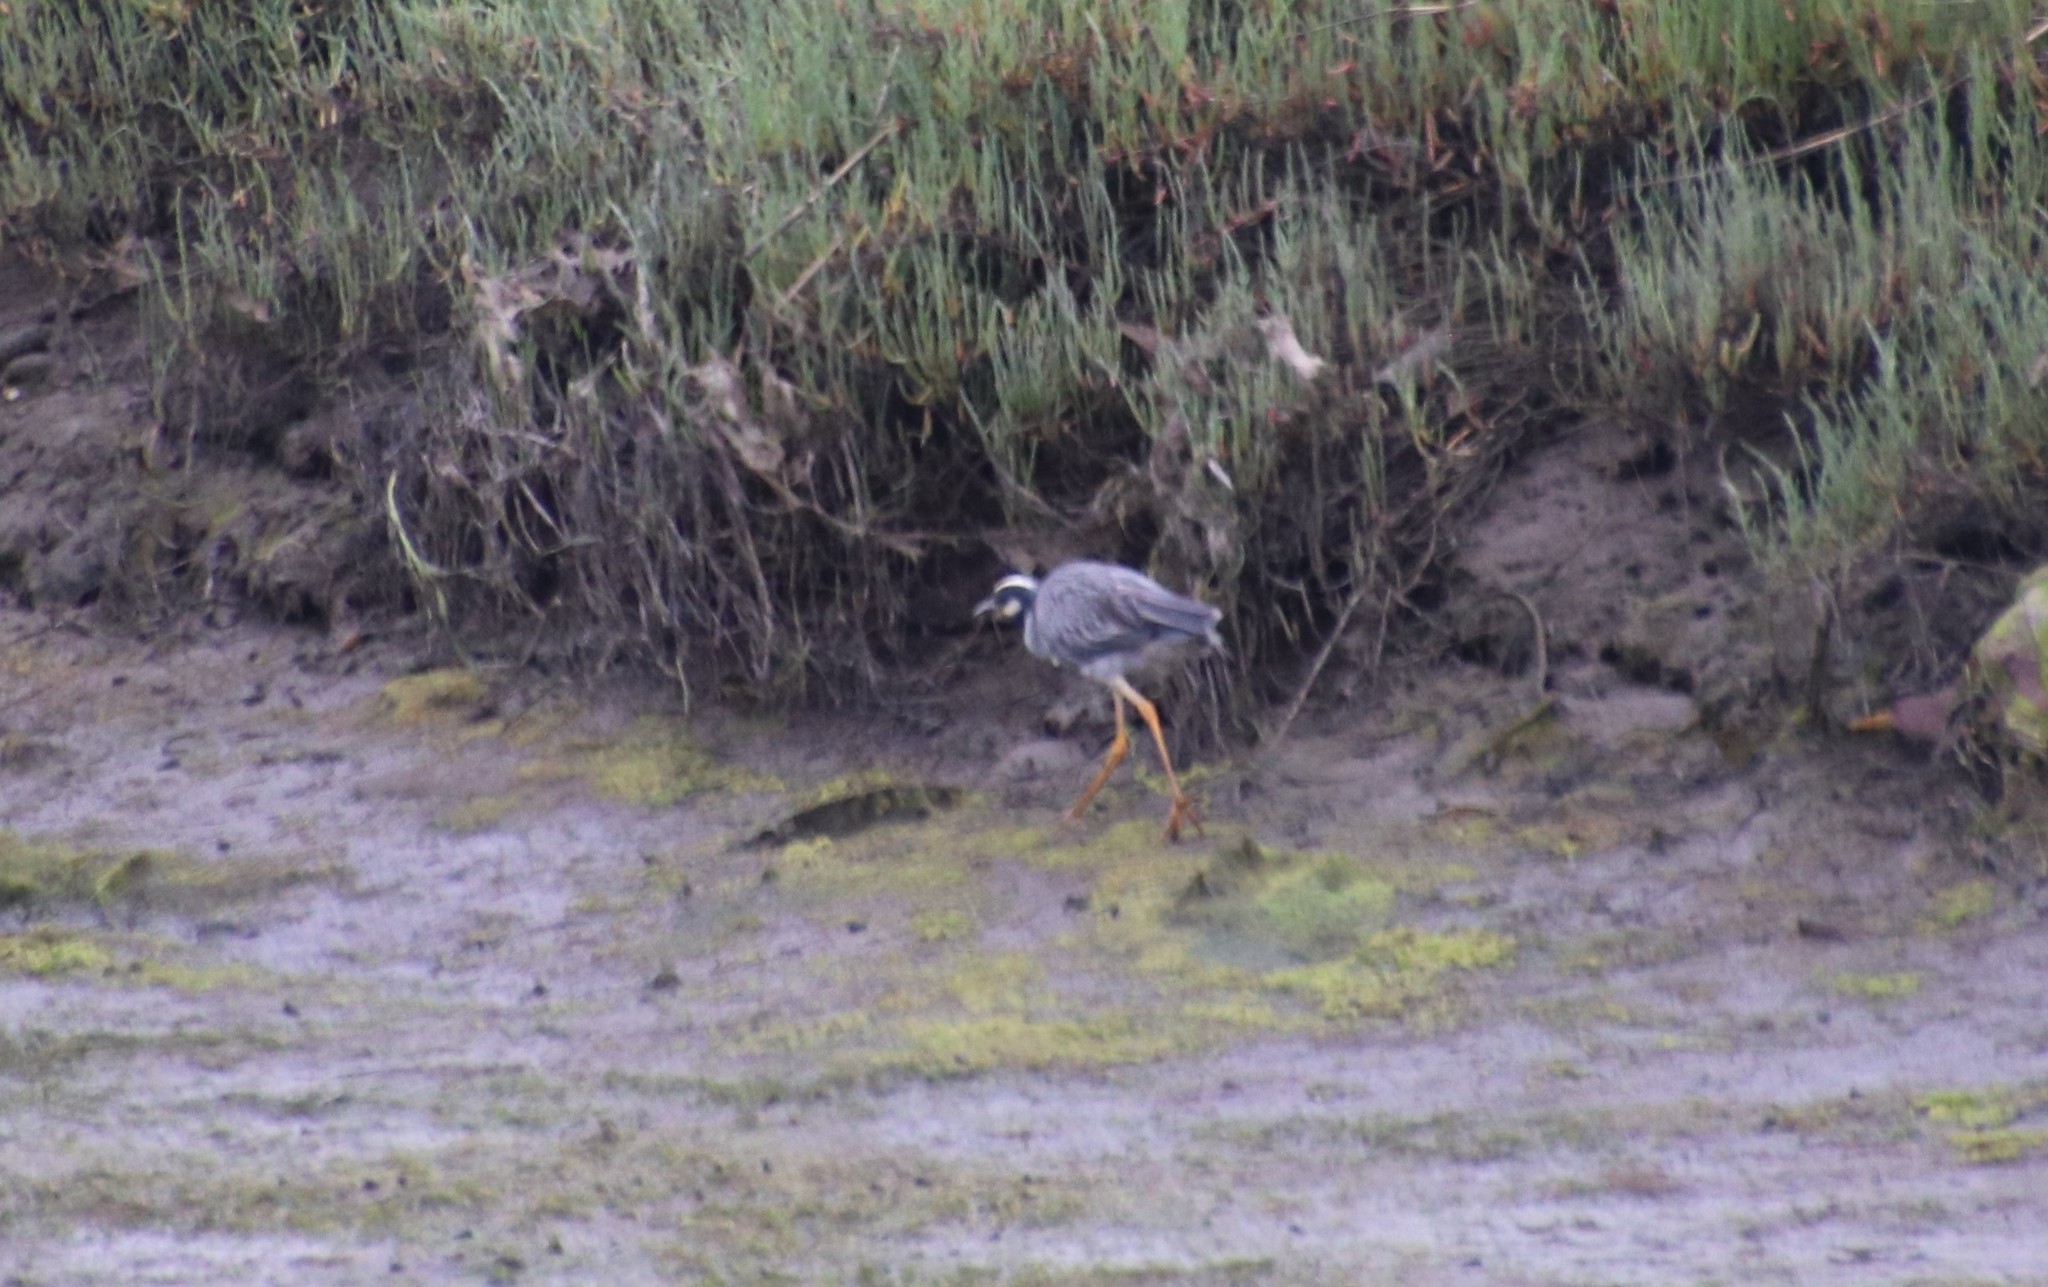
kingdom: Animalia
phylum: Chordata
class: Aves
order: Pelecaniformes
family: Ardeidae
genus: Nyctanassa
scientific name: Nyctanassa violacea
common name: Yellow-crowned night heron
